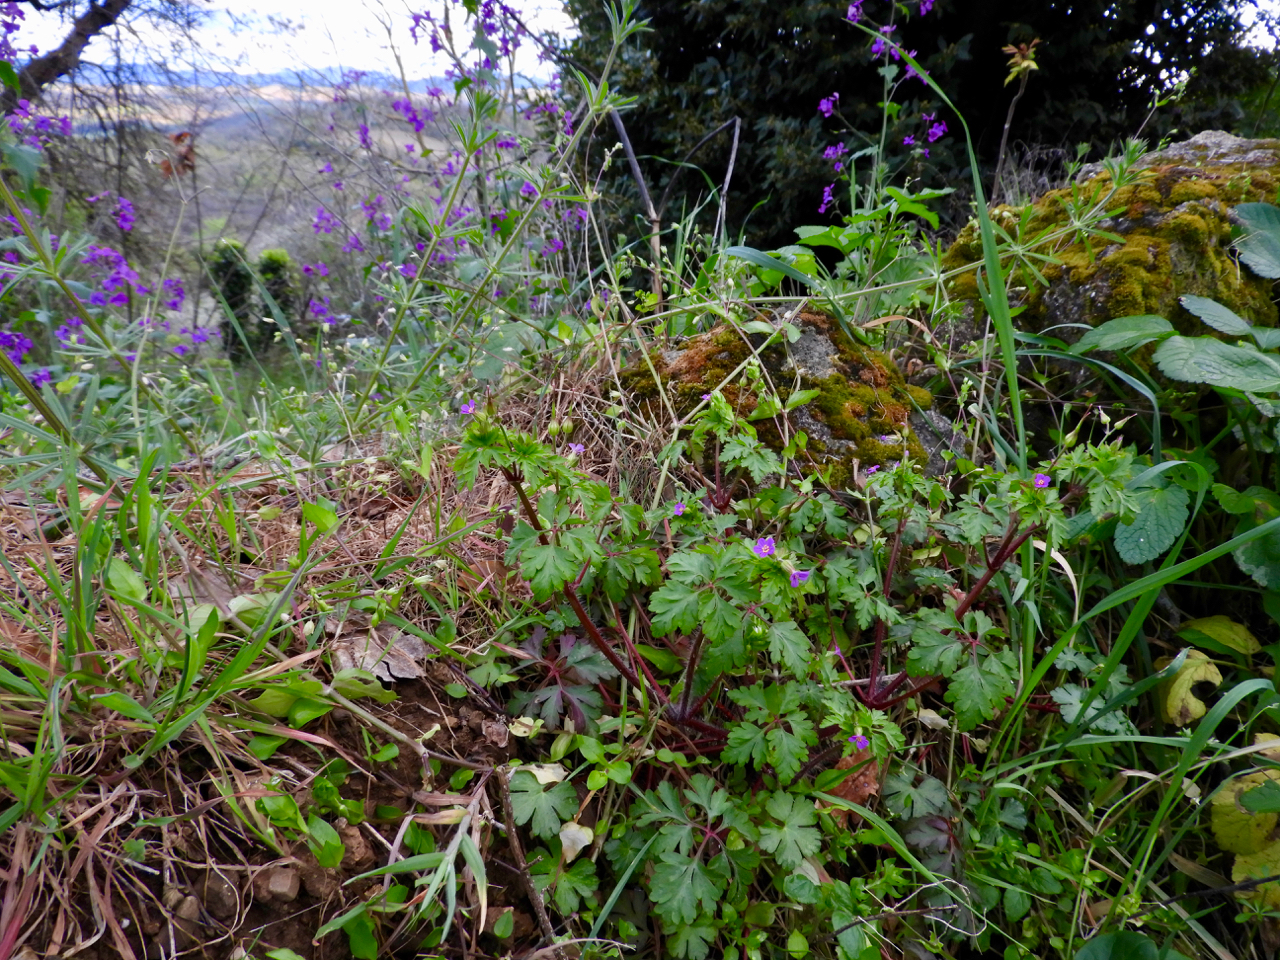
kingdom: Plantae
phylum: Tracheophyta
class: Magnoliopsida
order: Geraniales
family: Geraniaceae
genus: Geranium
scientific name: Geranium purpureum
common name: Little-robin
